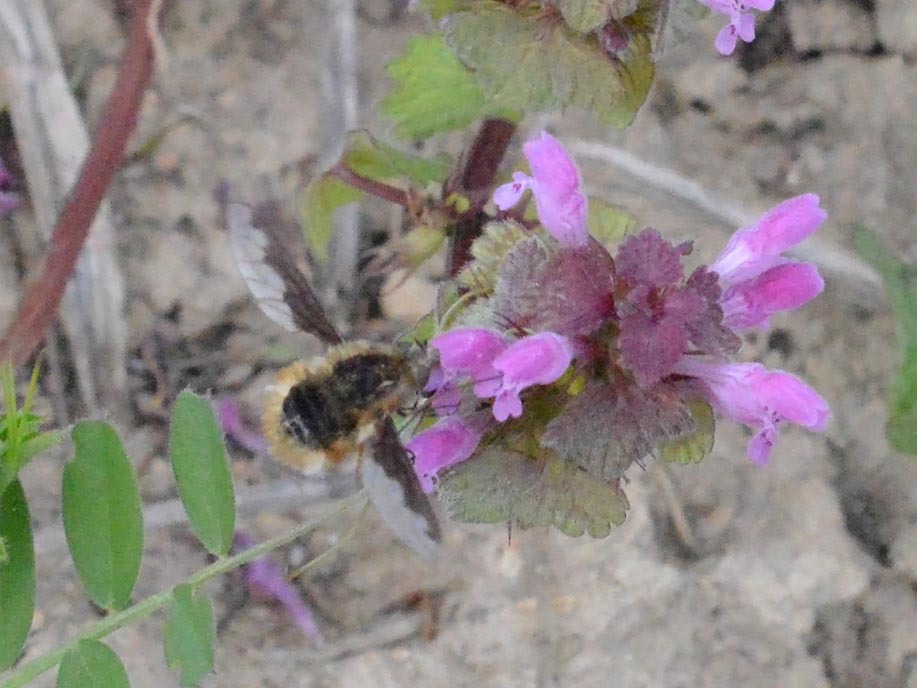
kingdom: Animalia
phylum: Arthropoda
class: Insecta
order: Diptera
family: Bombyliidae
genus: Bombylius
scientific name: Bombylius major
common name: Bee fly
